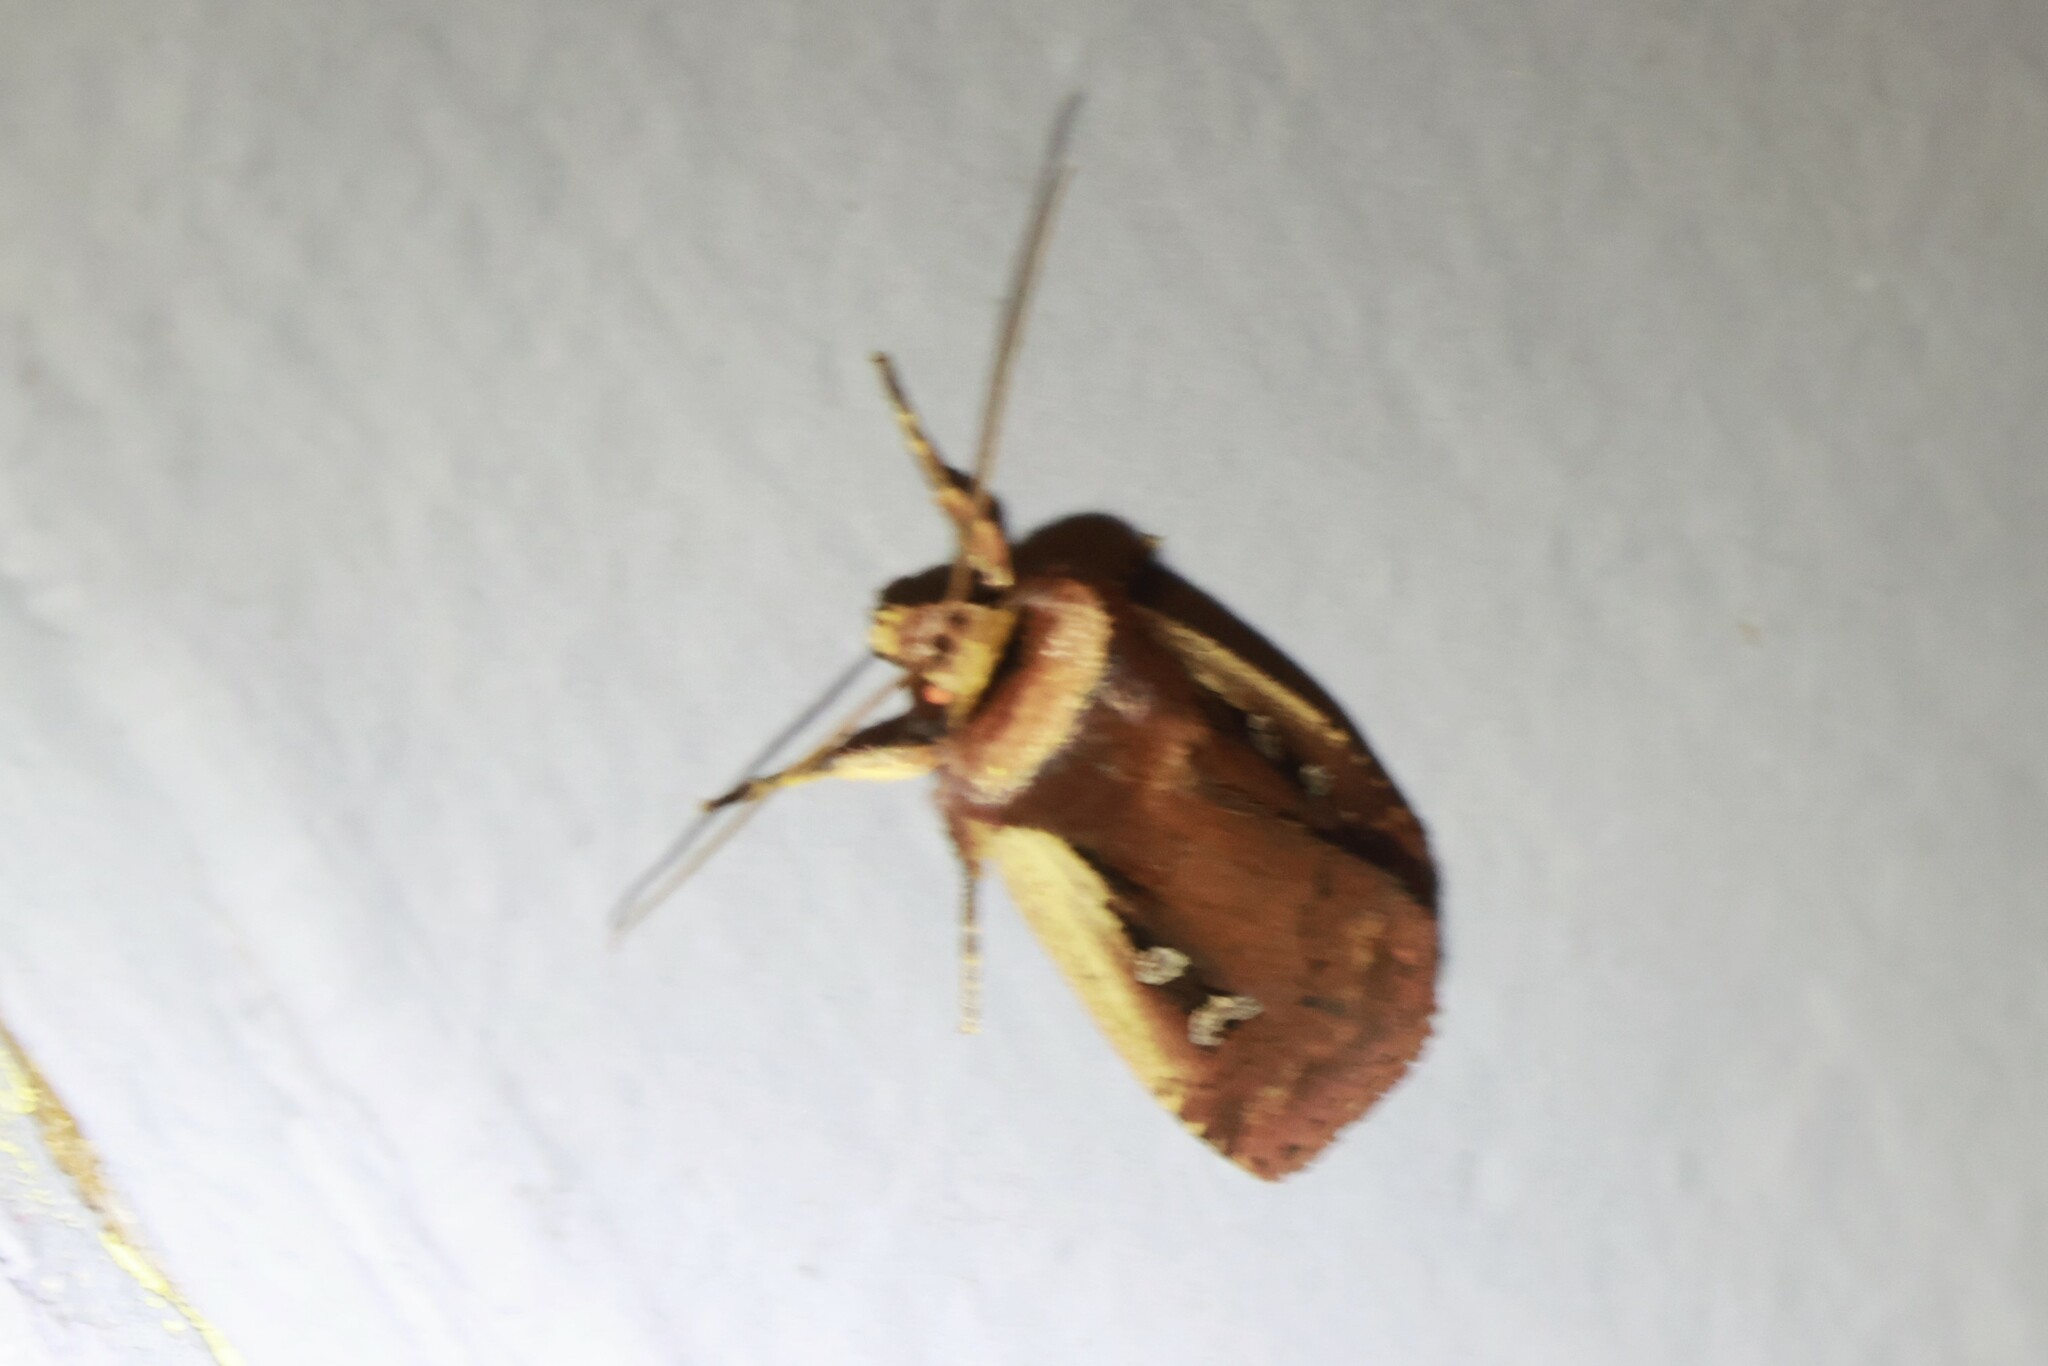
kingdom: Animalia
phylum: Arthropoda
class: Insecta
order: Lepidoptera
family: Noctuidae
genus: Ochropleura
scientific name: Ochropleura implecta
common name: Flame-shouldered dart
